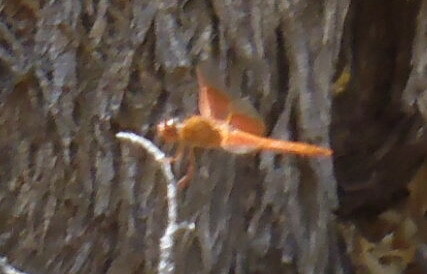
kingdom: Animalia
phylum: Arthropoda
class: Insecta
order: Odonata
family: Libellulidae
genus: Libellula
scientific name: Libellula saturata
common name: Flame skimmer
